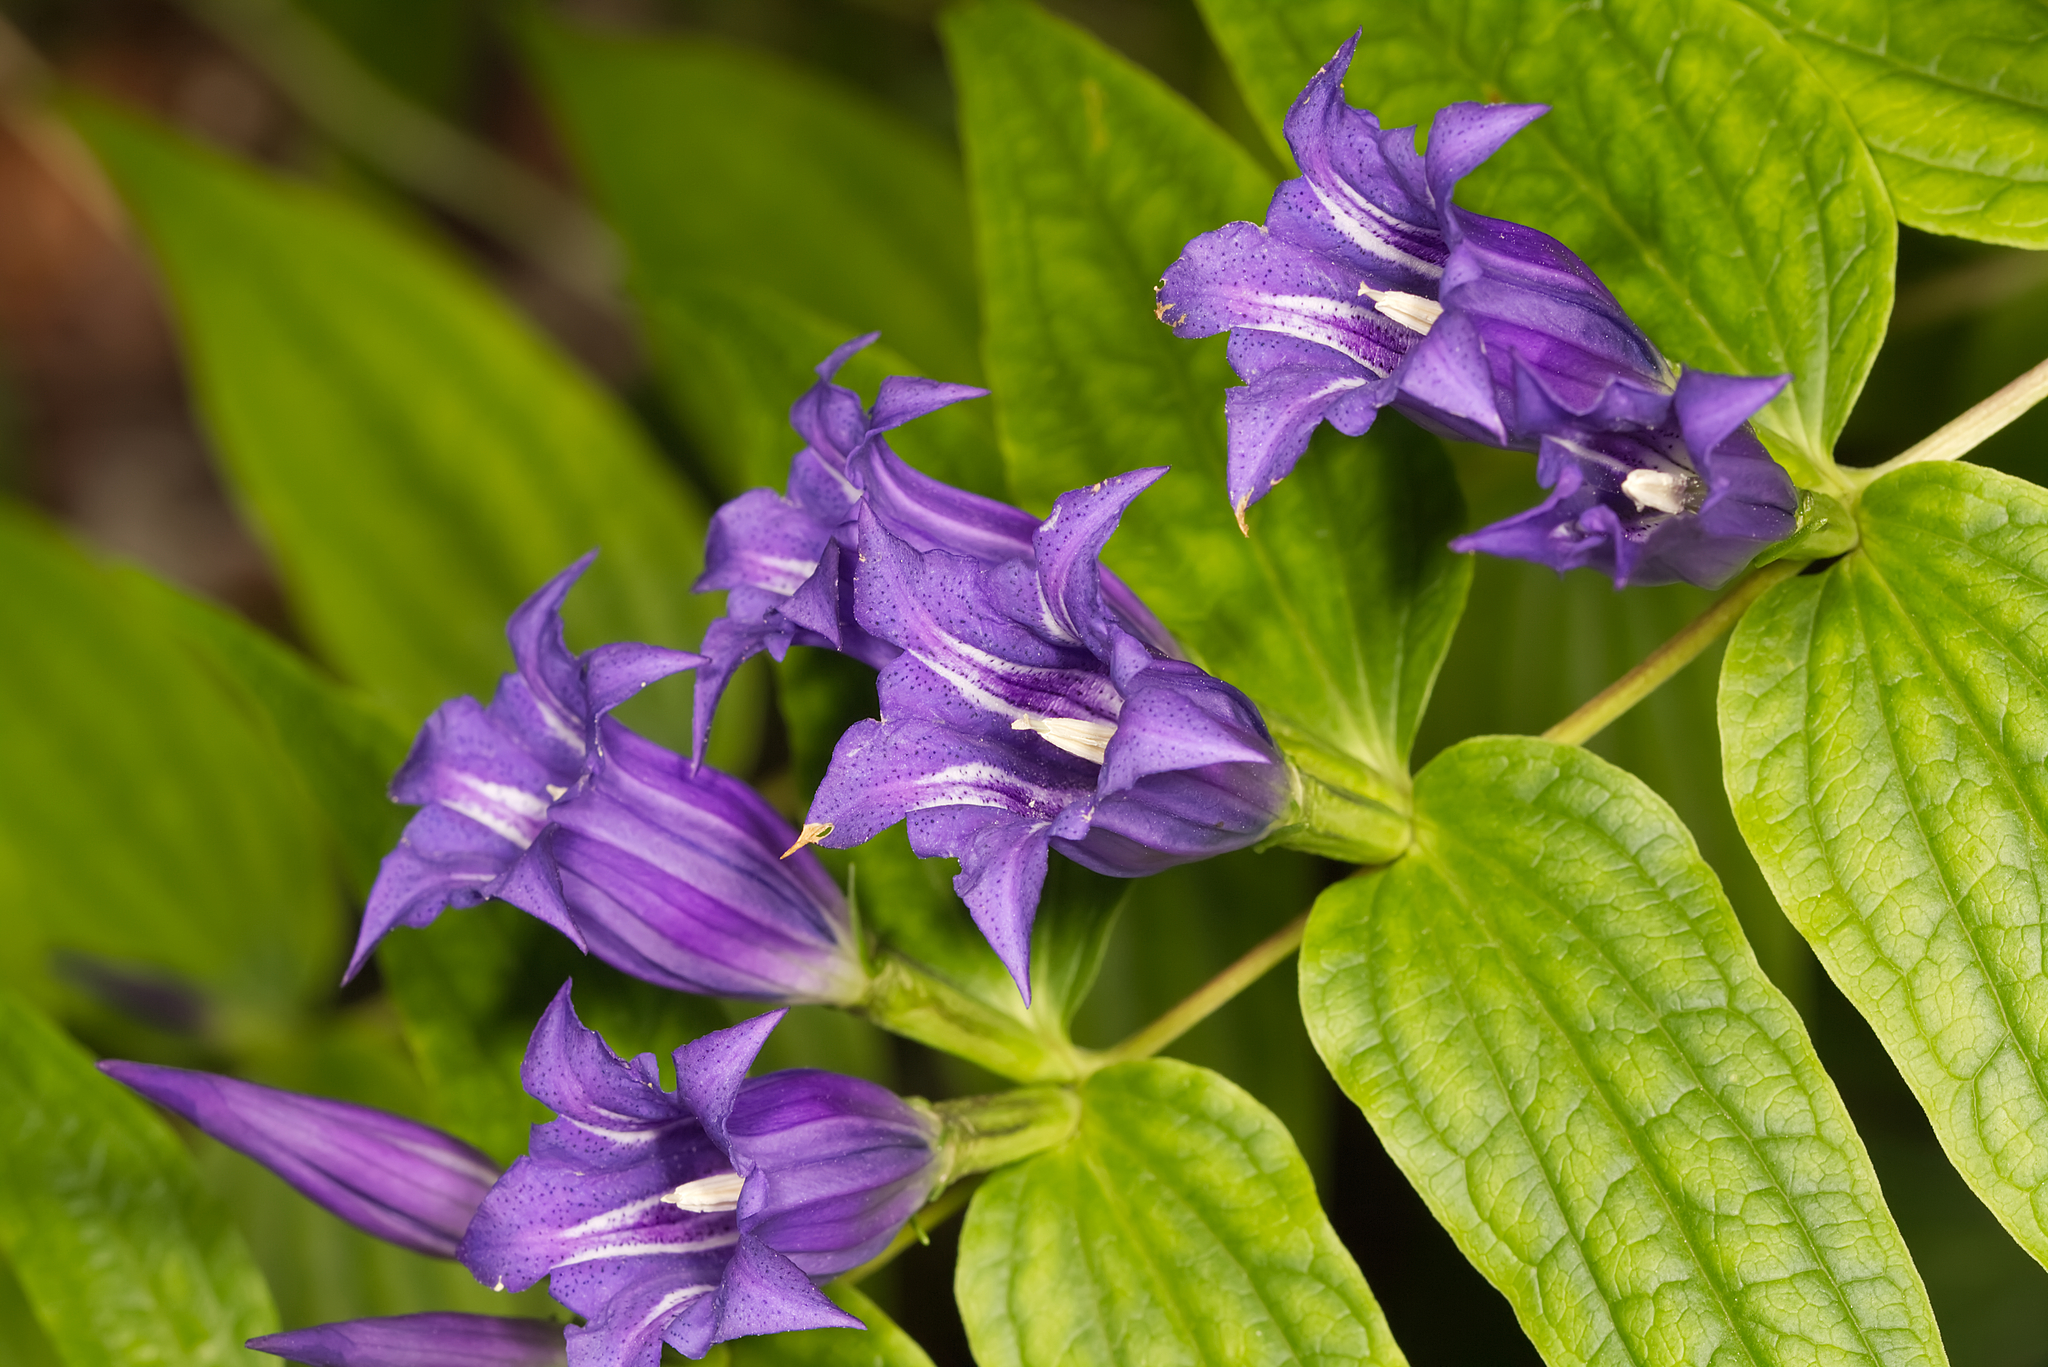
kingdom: Plantae
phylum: Tracheophyta
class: Magnoliopsida
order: Gentianales
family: Gentianaceae
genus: Gentiana
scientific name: Gentiana asclepiadea
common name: Willow gentian
